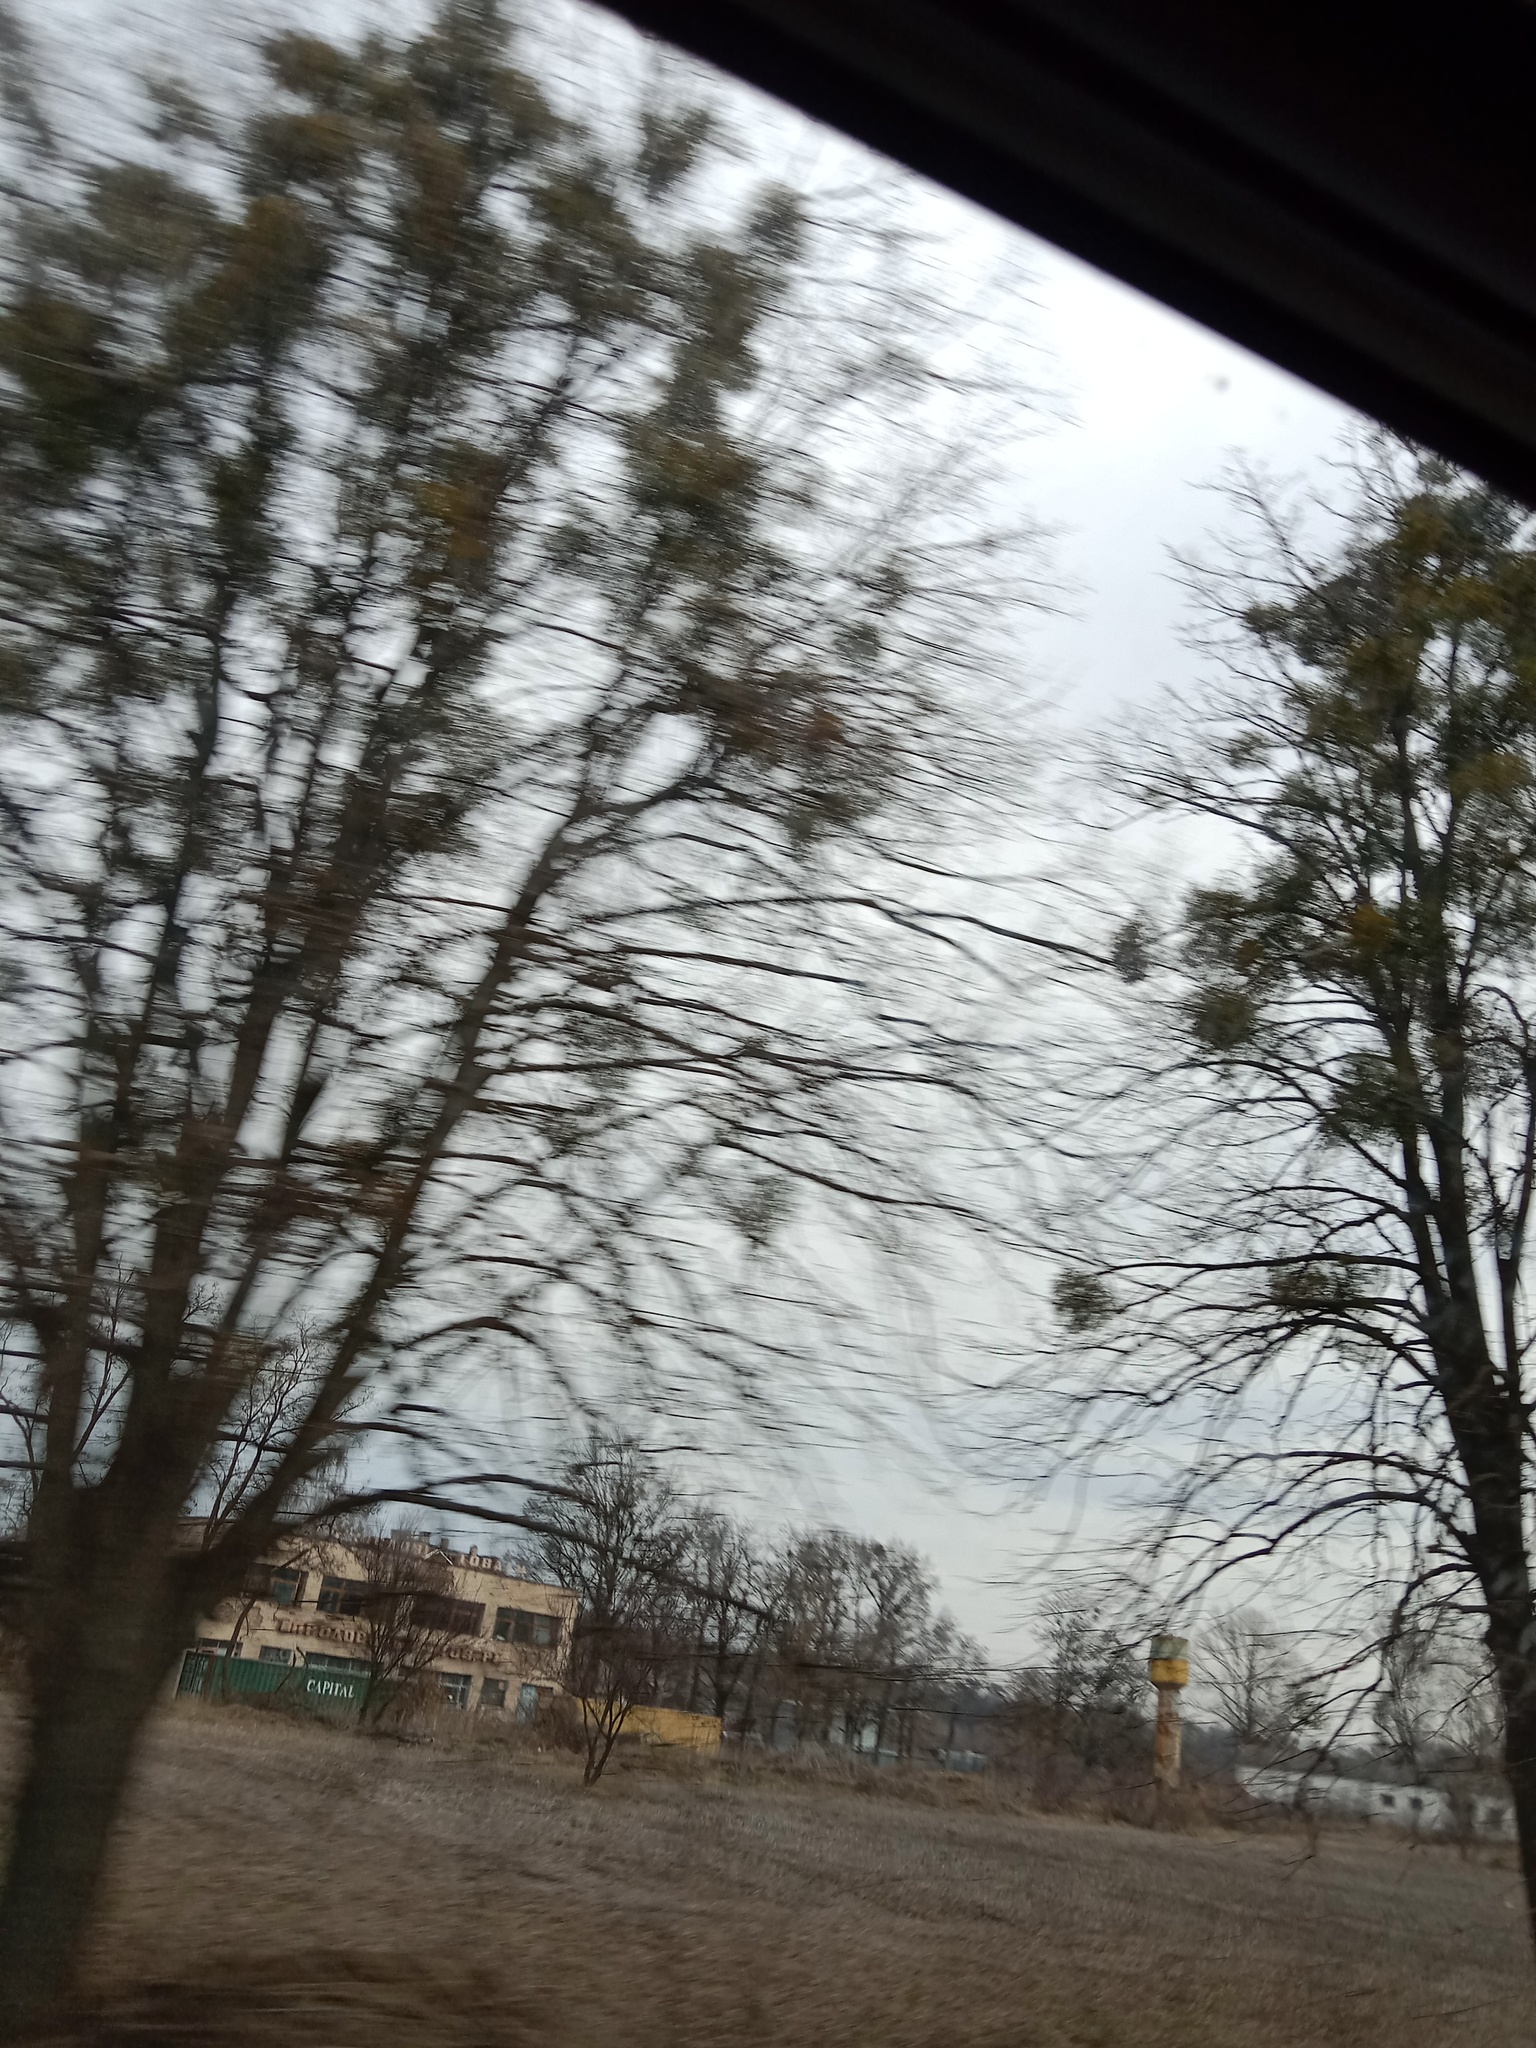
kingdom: Plantae
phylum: Tracheophyta
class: Magnoliopsida
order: Santalales
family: Viscaceae
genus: Viscum
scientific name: Viscum album
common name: Mistletoe
